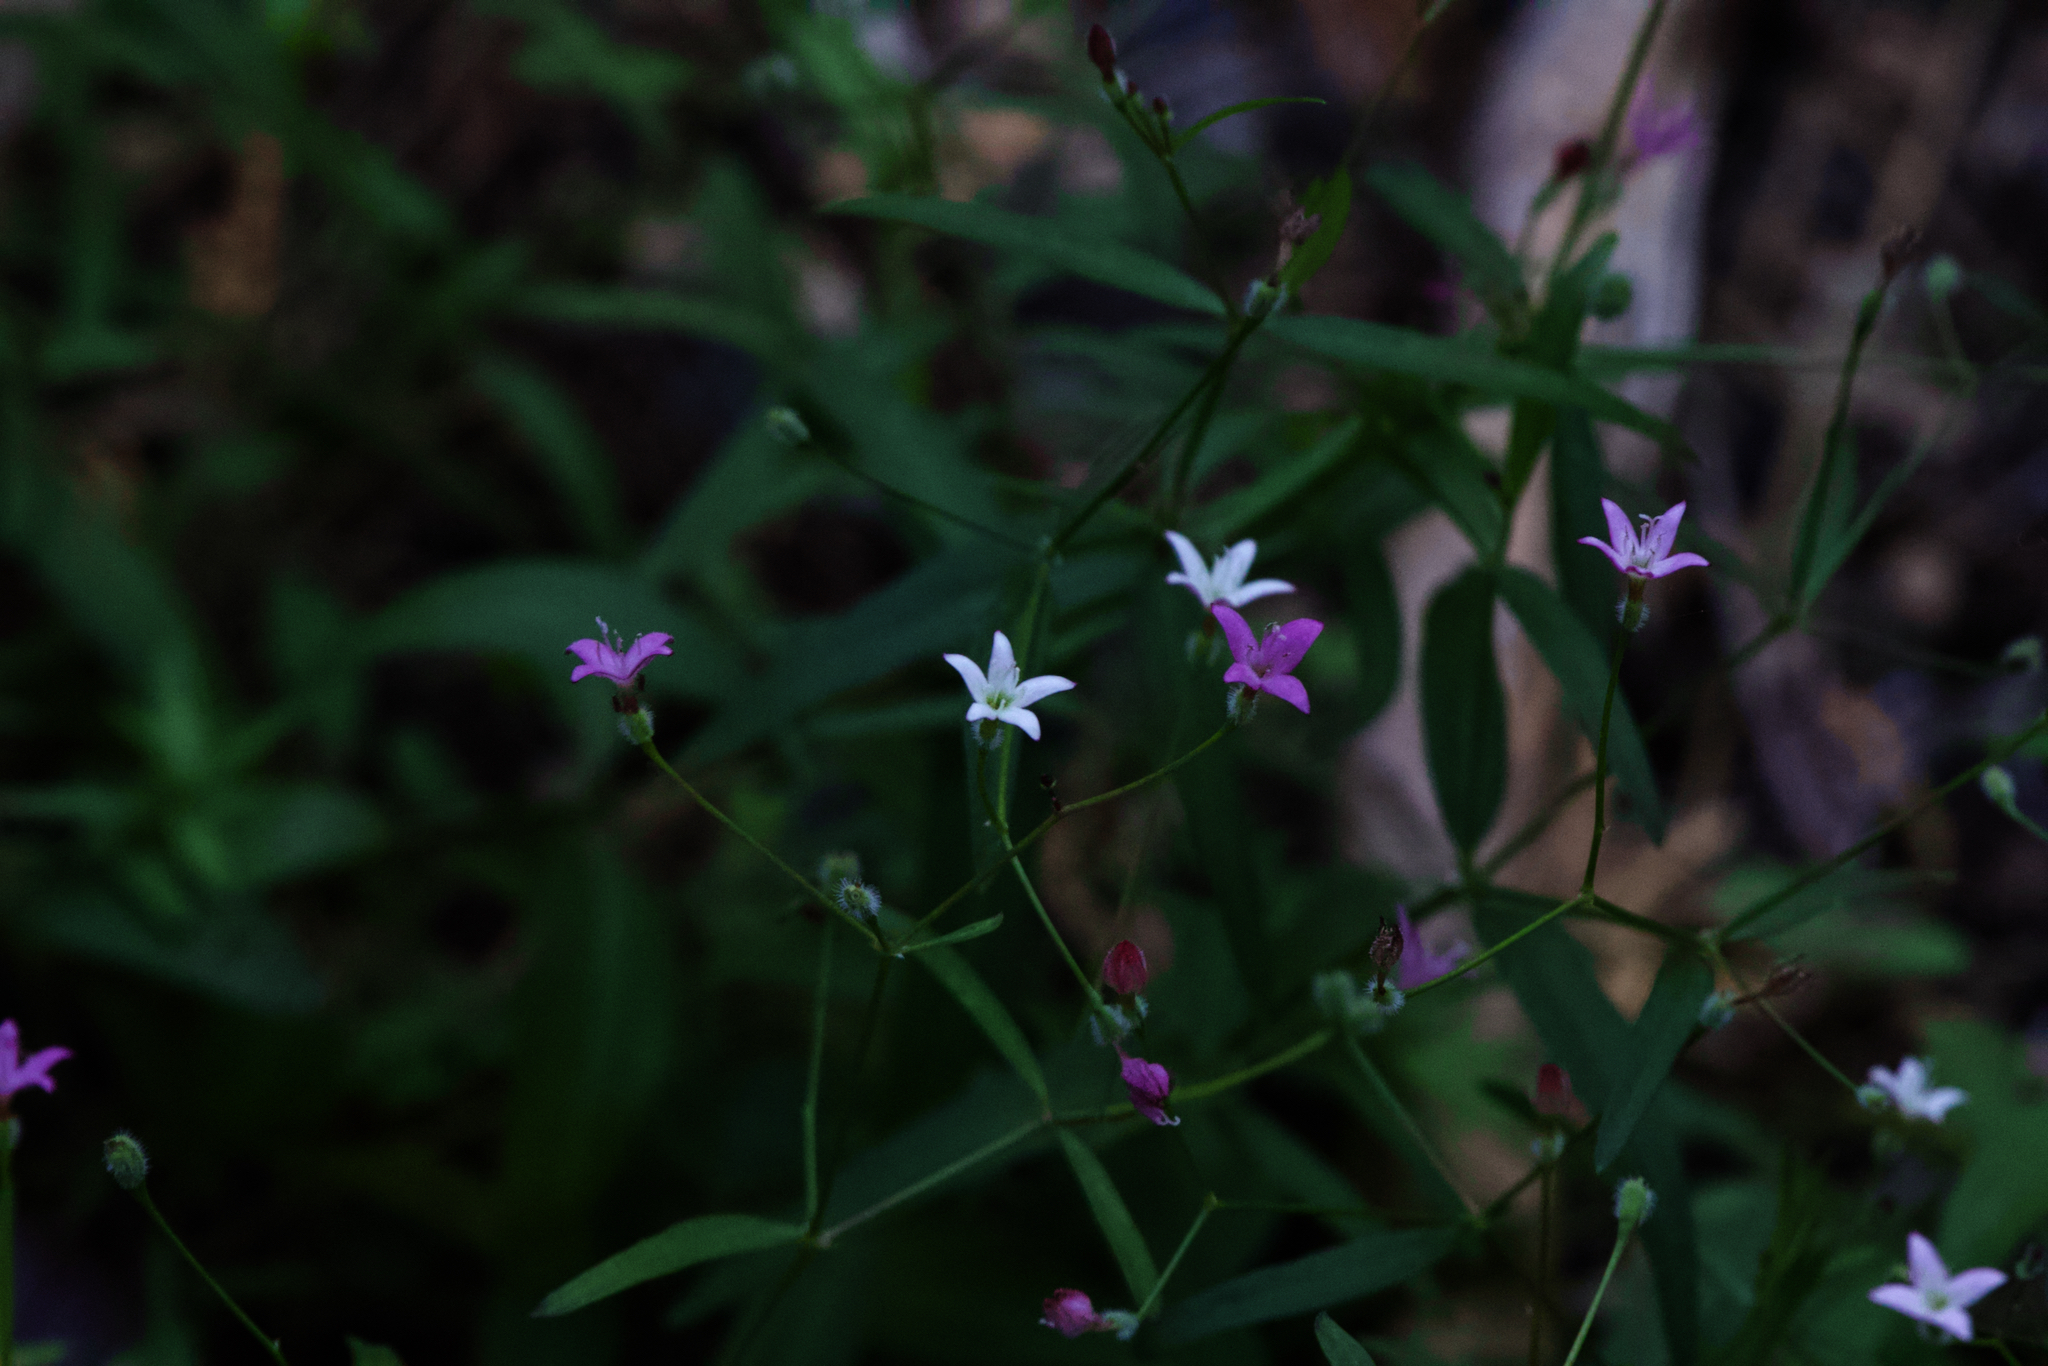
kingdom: Plantae
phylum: Tracheophyta
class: Magnoliopsida
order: Gentianales
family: Rubiaceae
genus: Kelloggia
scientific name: Kelloggia galioides
